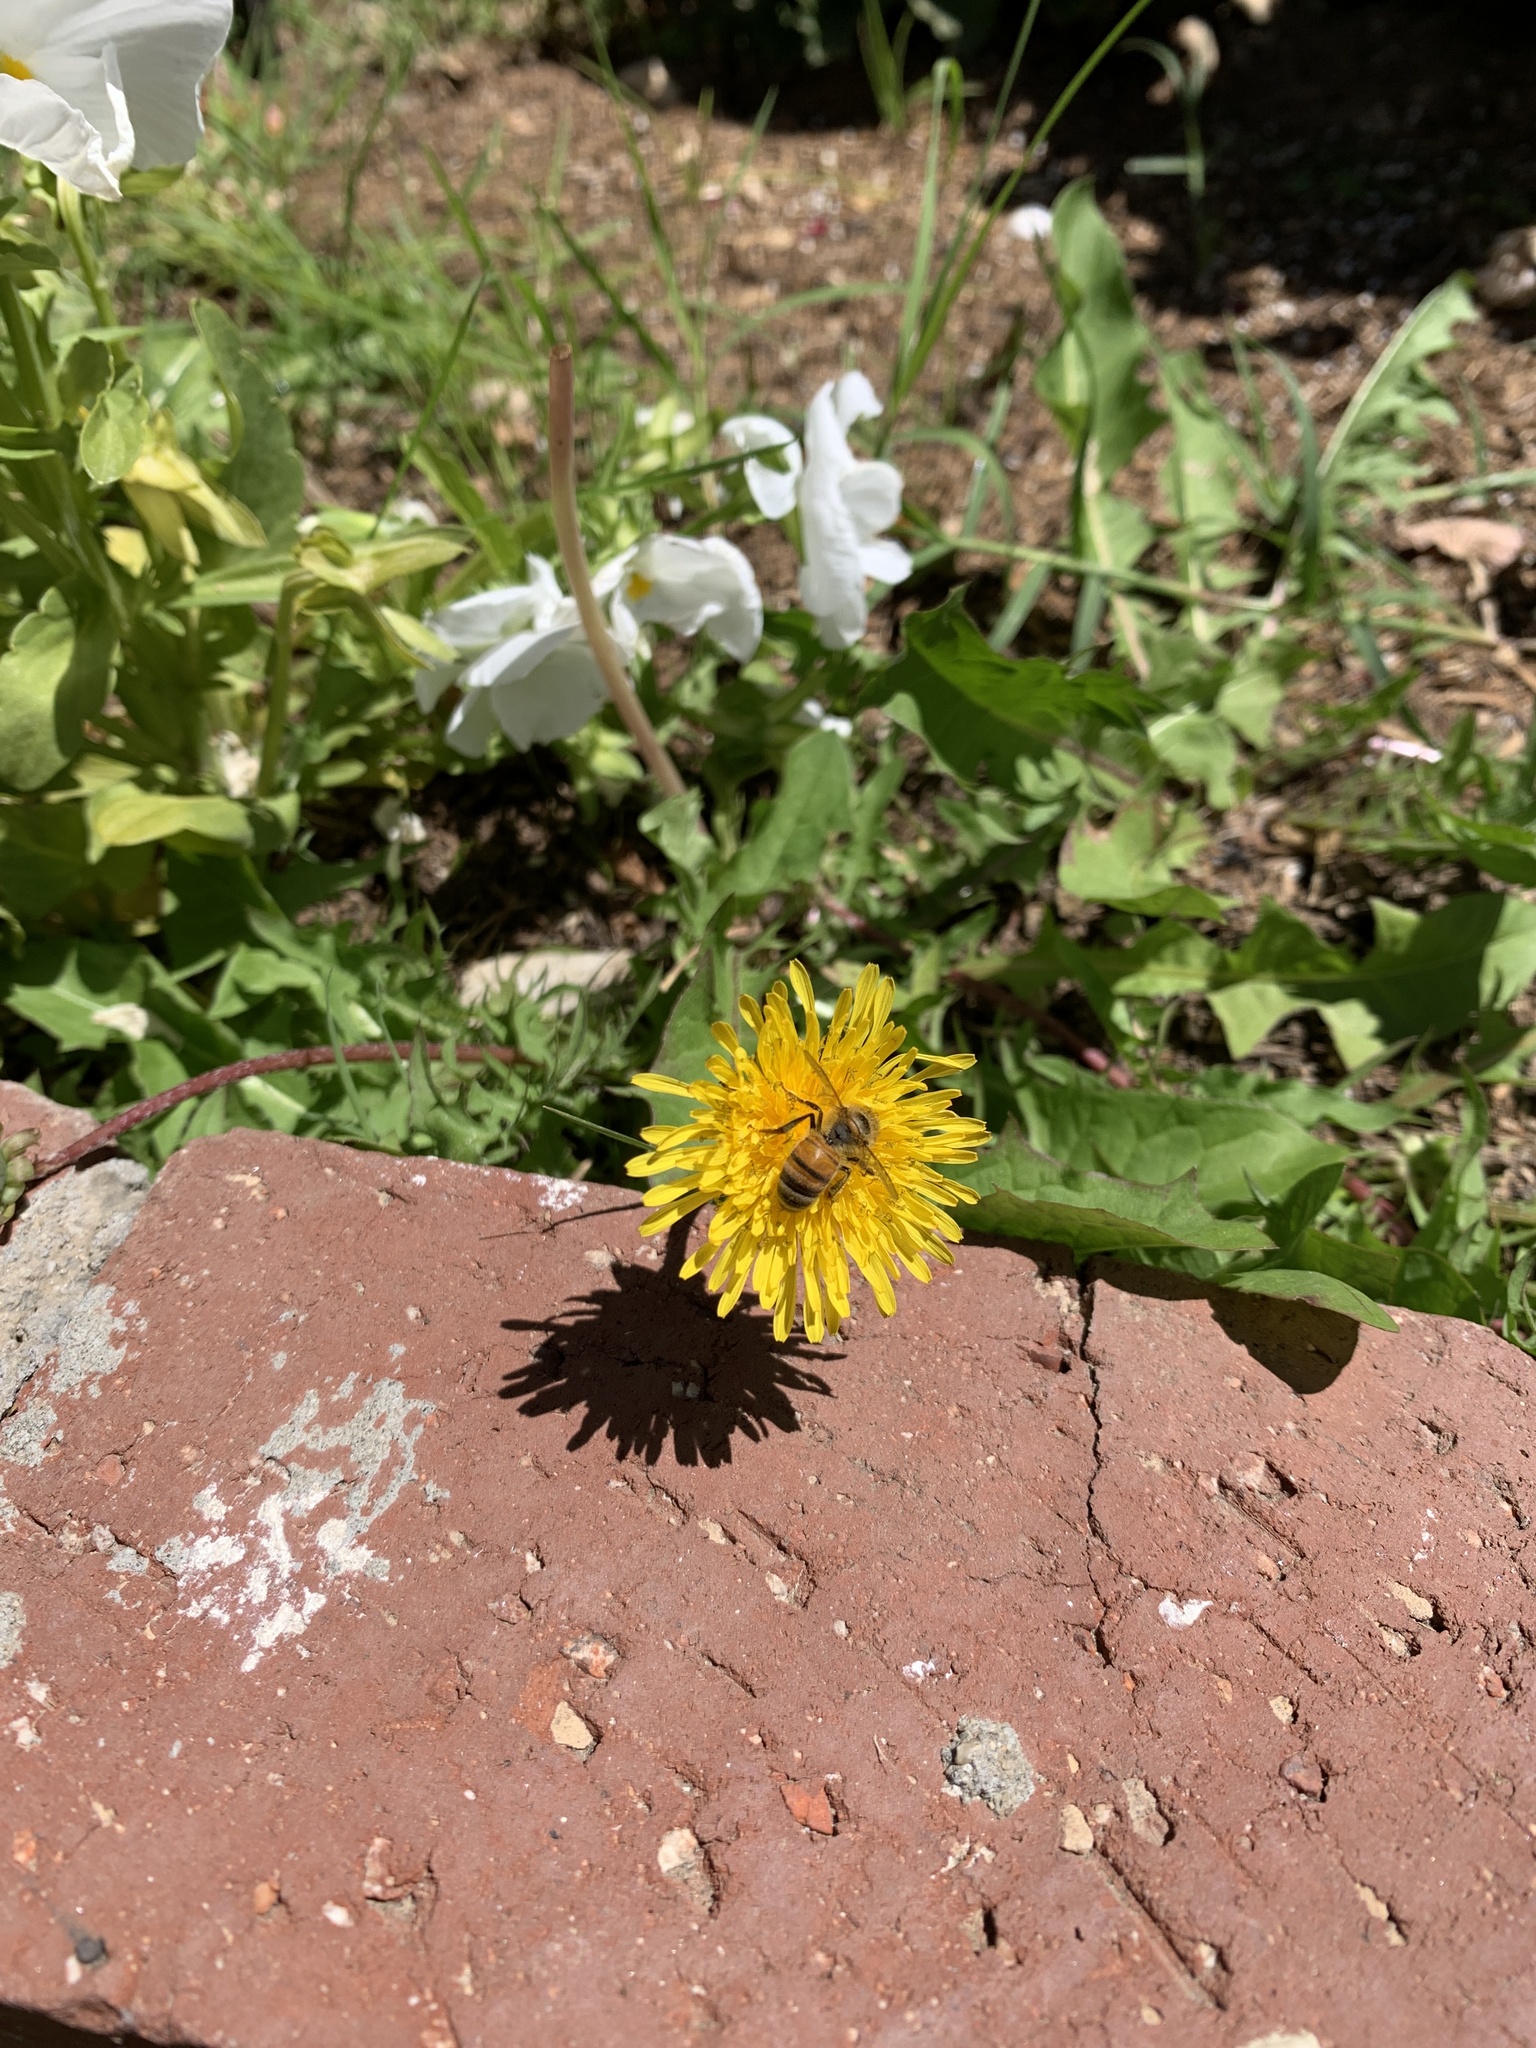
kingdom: Animalia
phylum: Arthropoda
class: Insecta
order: Hymenoptera
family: Apidae
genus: Apis
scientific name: Apis mellifera
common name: Honey bee
